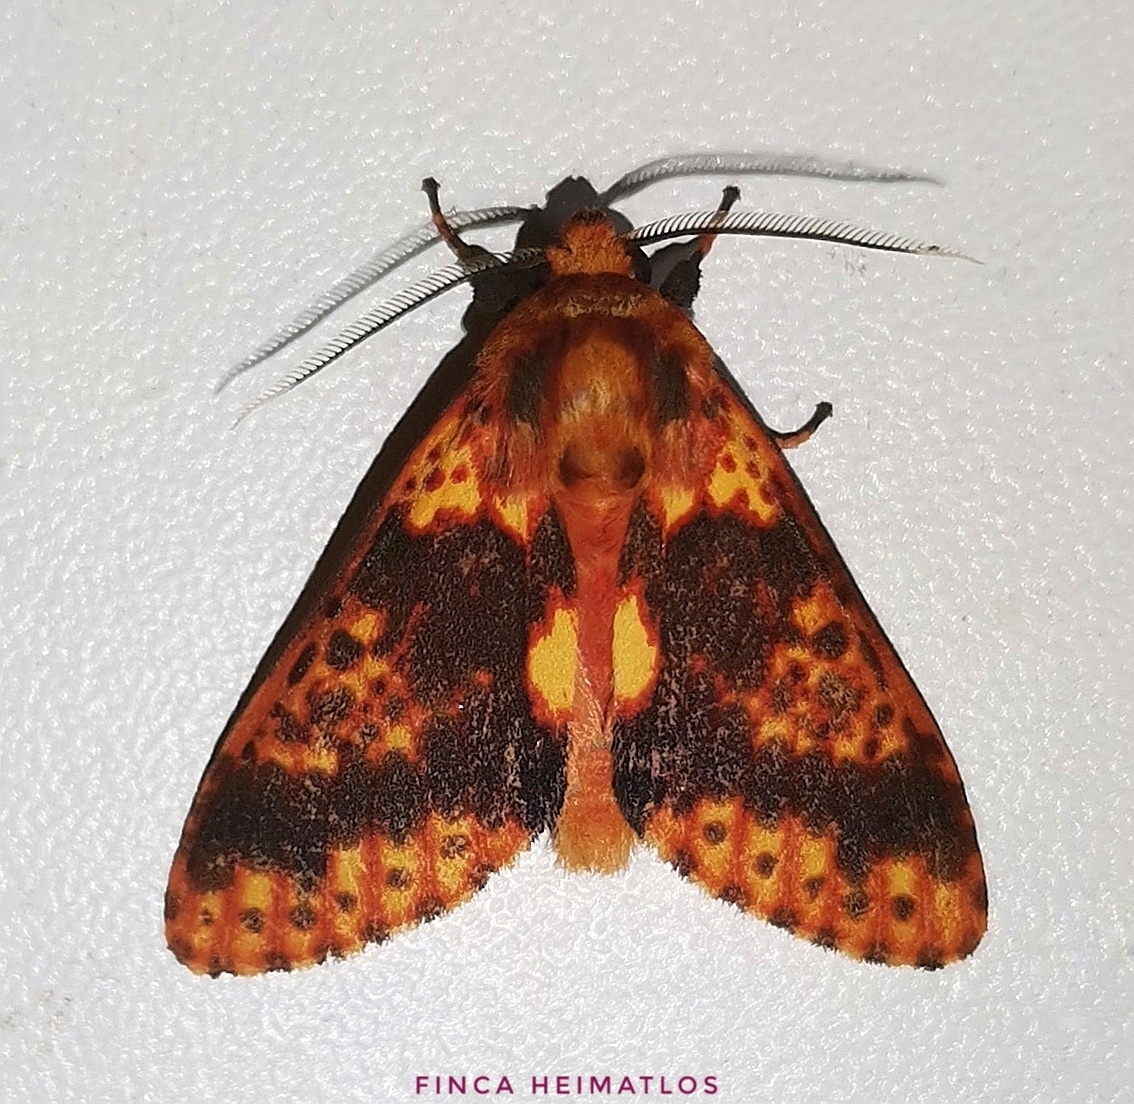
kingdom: Animalia
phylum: Arthropoda
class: Insecta
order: Lepidoptera
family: Erebidae
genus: Symphlebia
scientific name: Symphlebia perflua
